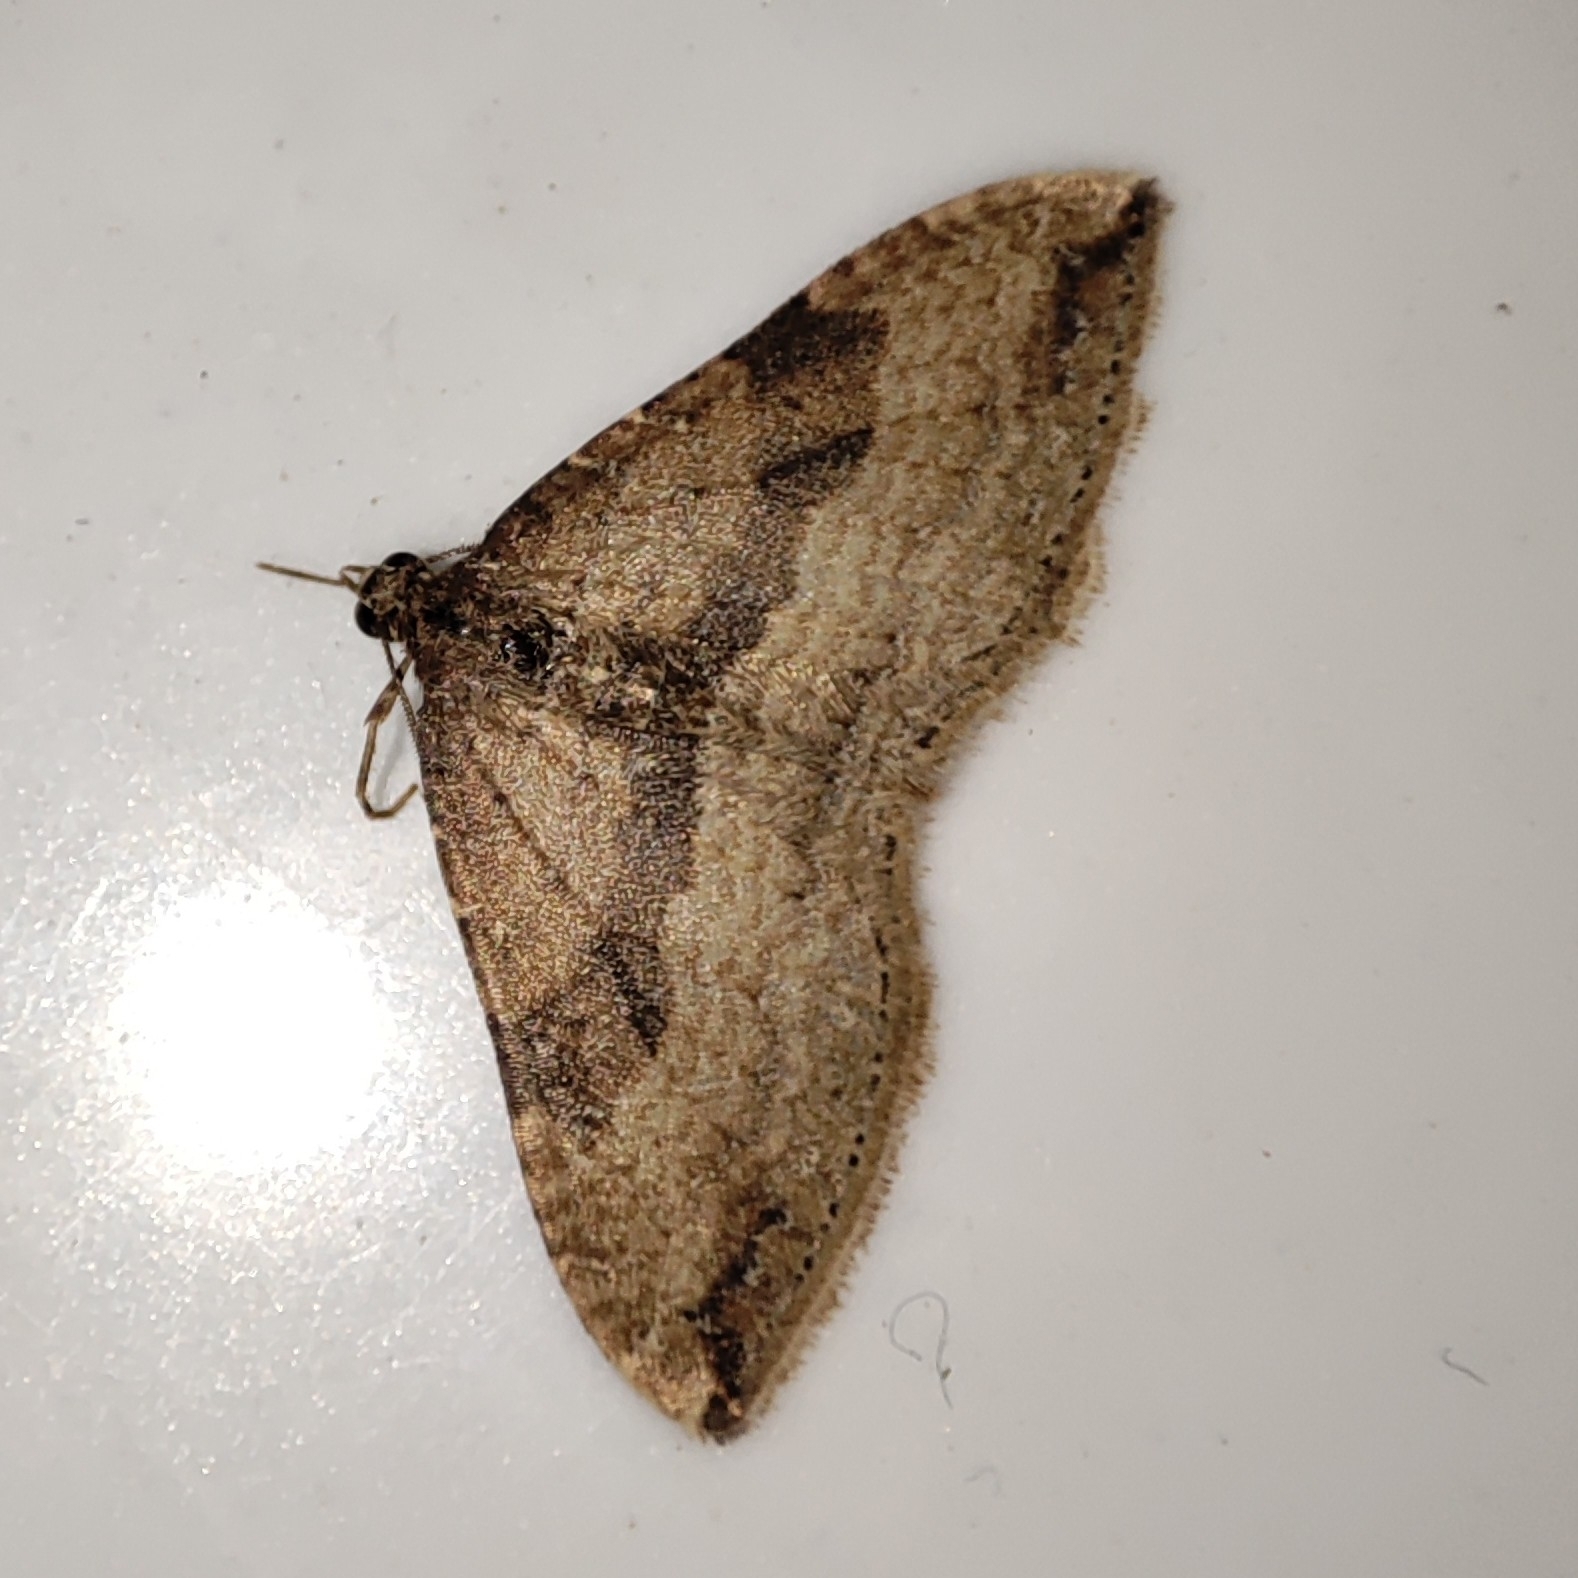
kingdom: Animalia
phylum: Arthropoda
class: Insecta
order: Lepidoptera
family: Geometridae
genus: Orthonama
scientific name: Orthonama obstipata
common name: The gem
